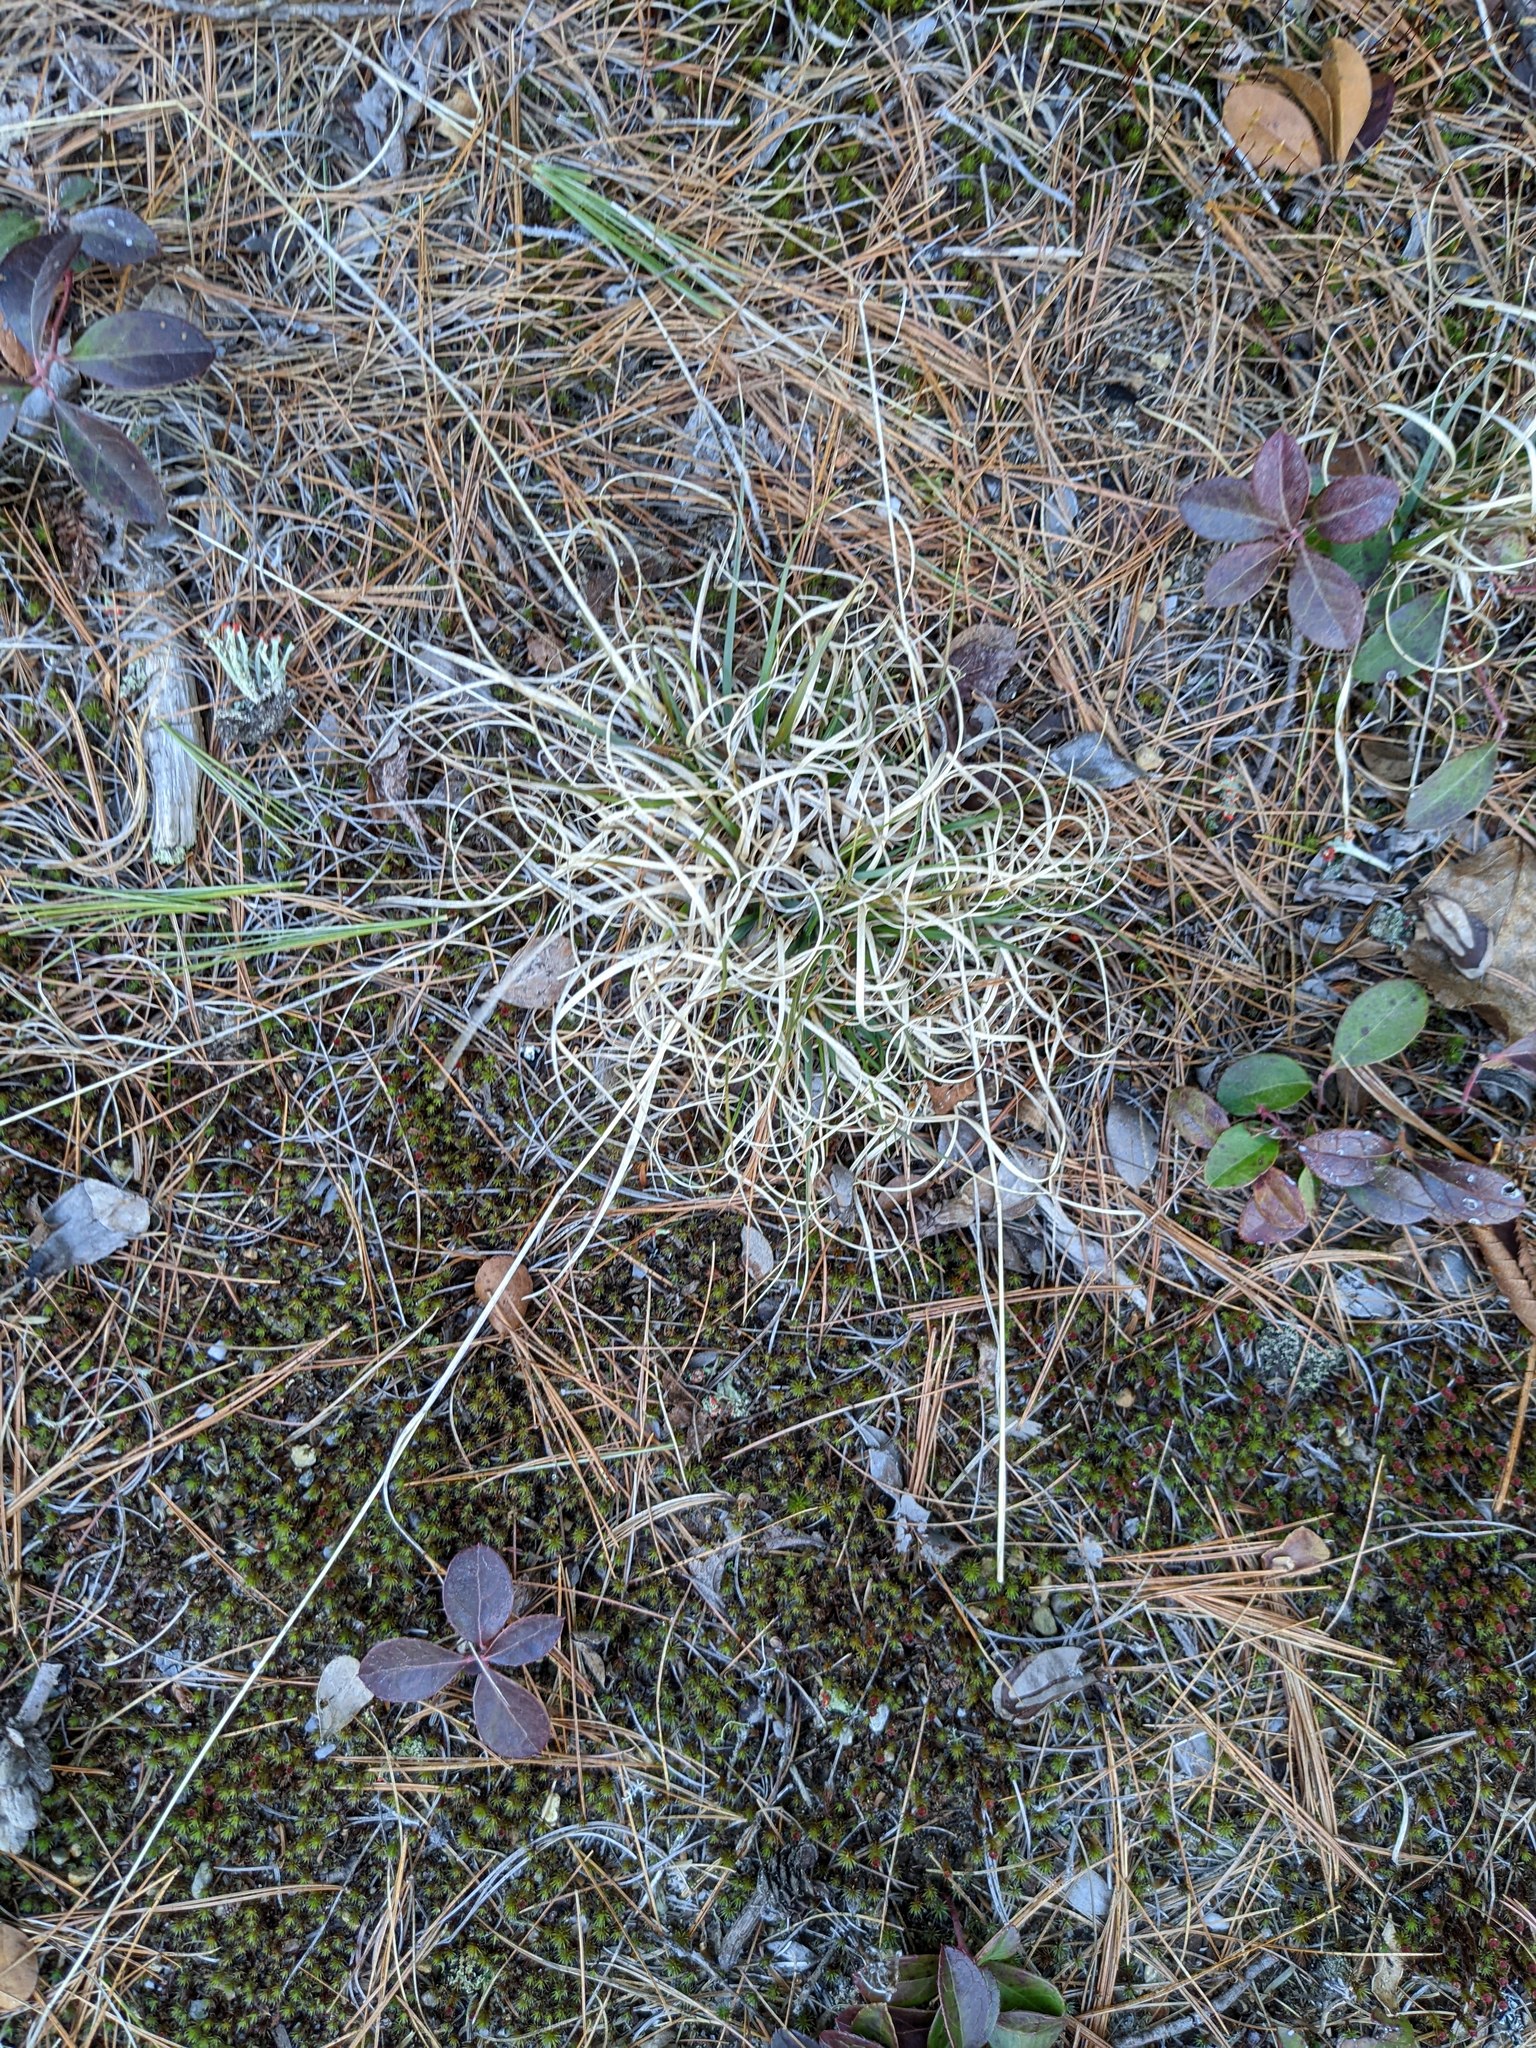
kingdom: Plantae
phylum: Tracheophyta
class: Magnoliopsida
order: Ericales
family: Ericaceae
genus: Gaultheria
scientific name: Gaultheria procumbens
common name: Checkerberry
